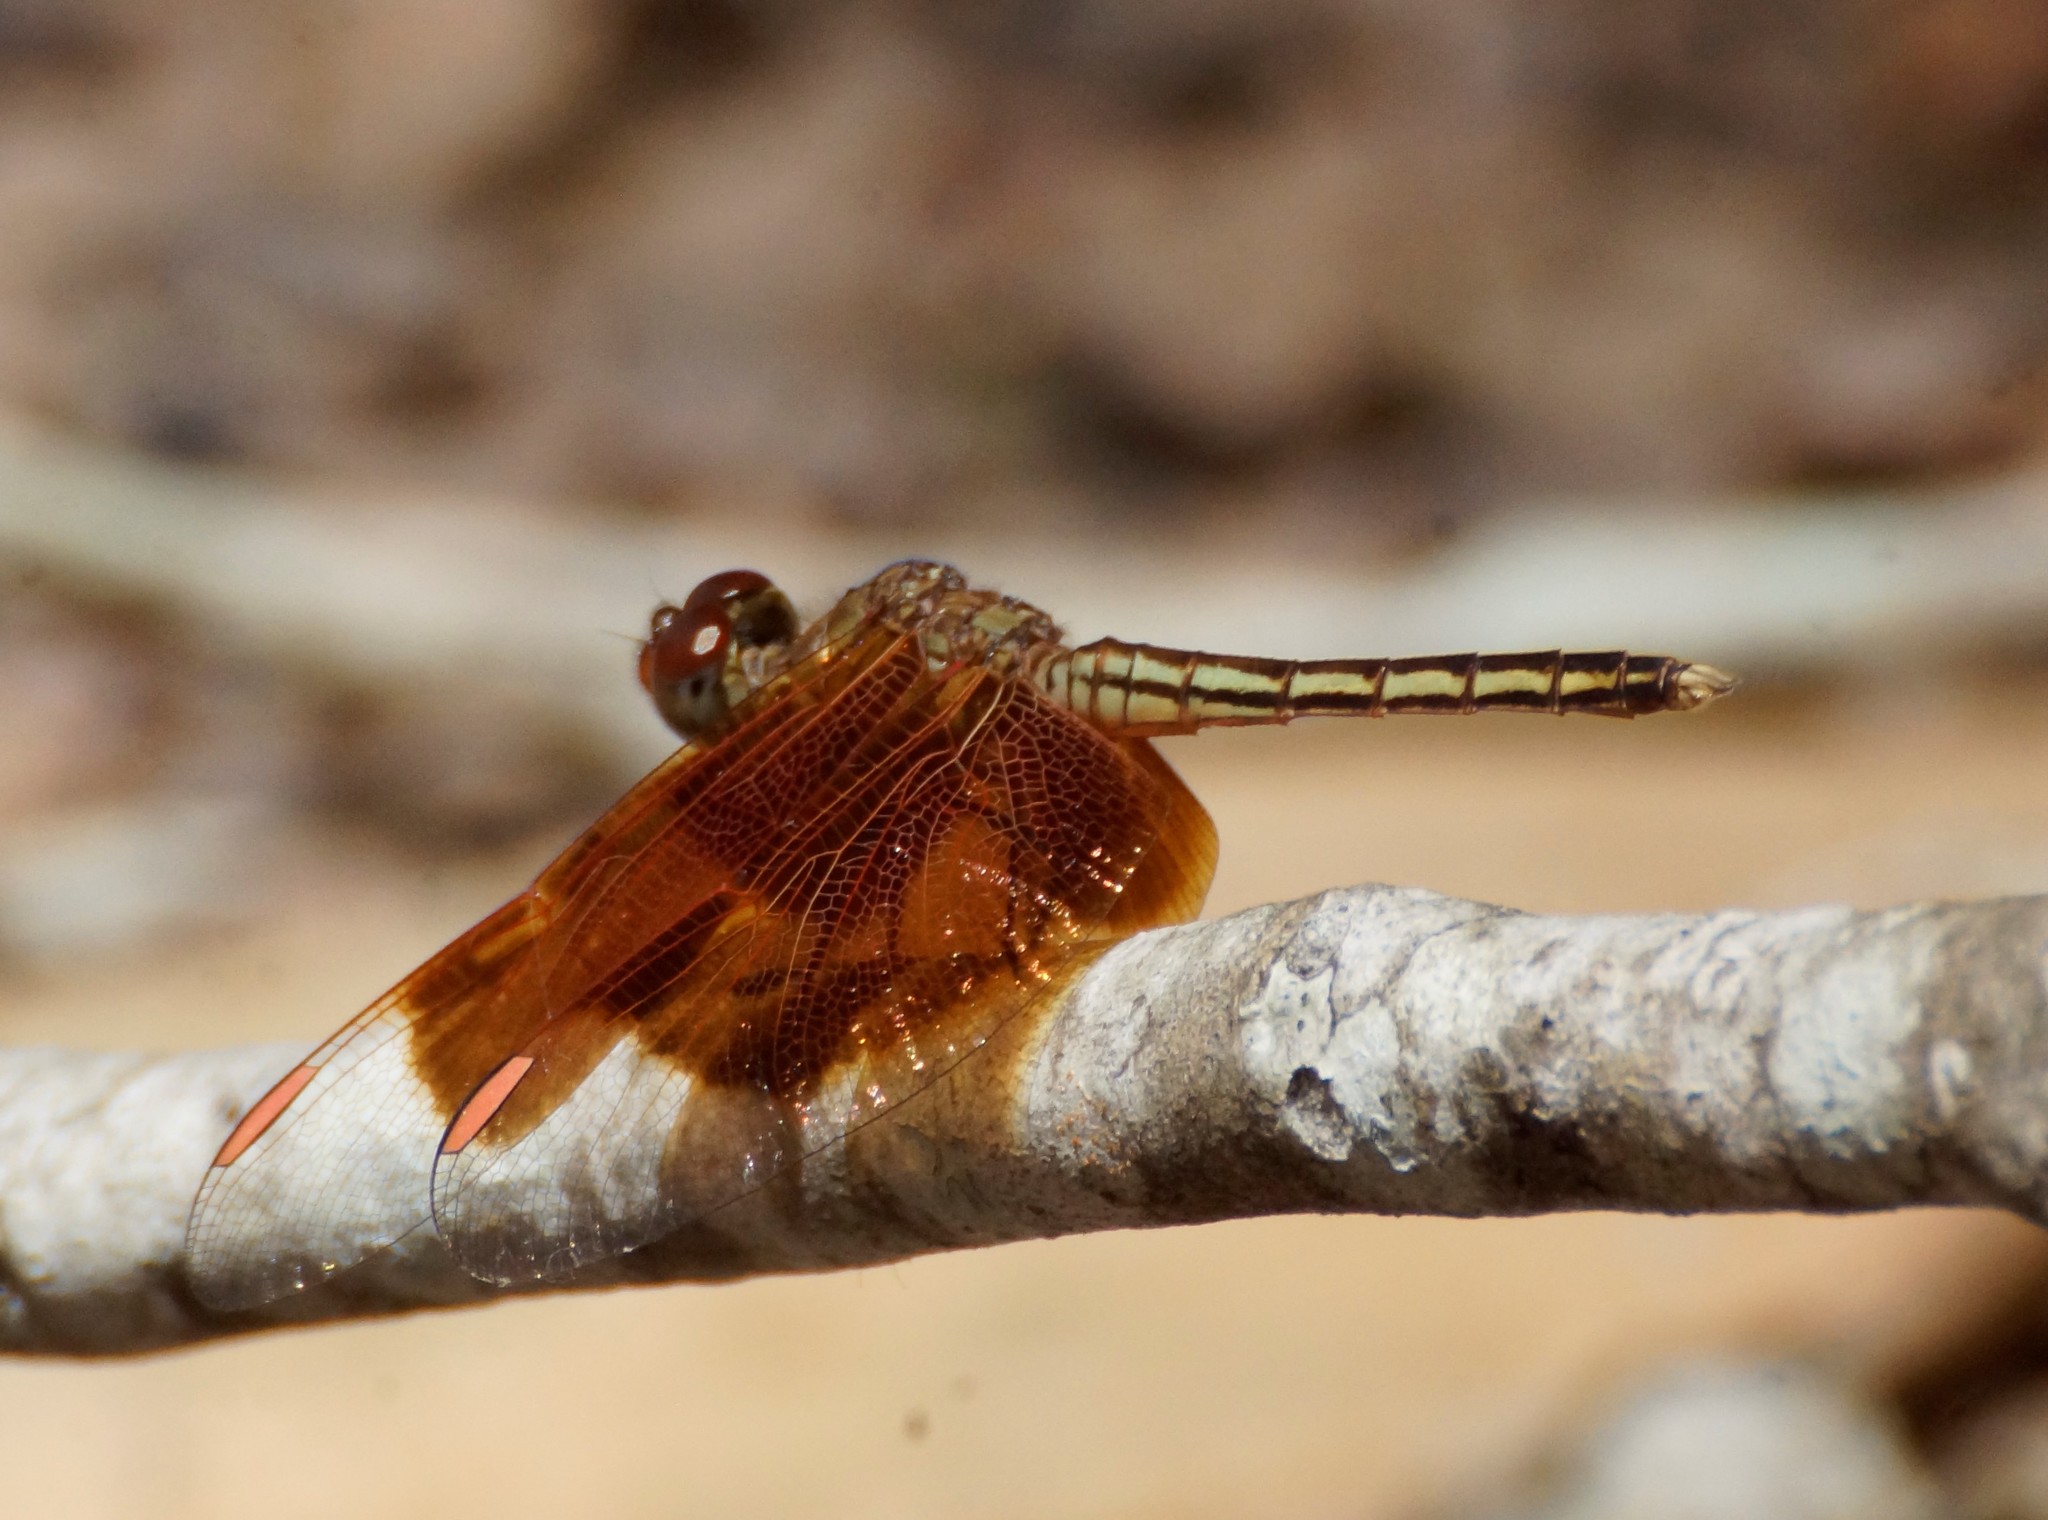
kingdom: Animalia
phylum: Arthropoda
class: Insecta
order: Odonata
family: Libellulidae
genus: Neurothemis
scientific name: Neurothemis stigmatizans
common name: Painted grasshawk
